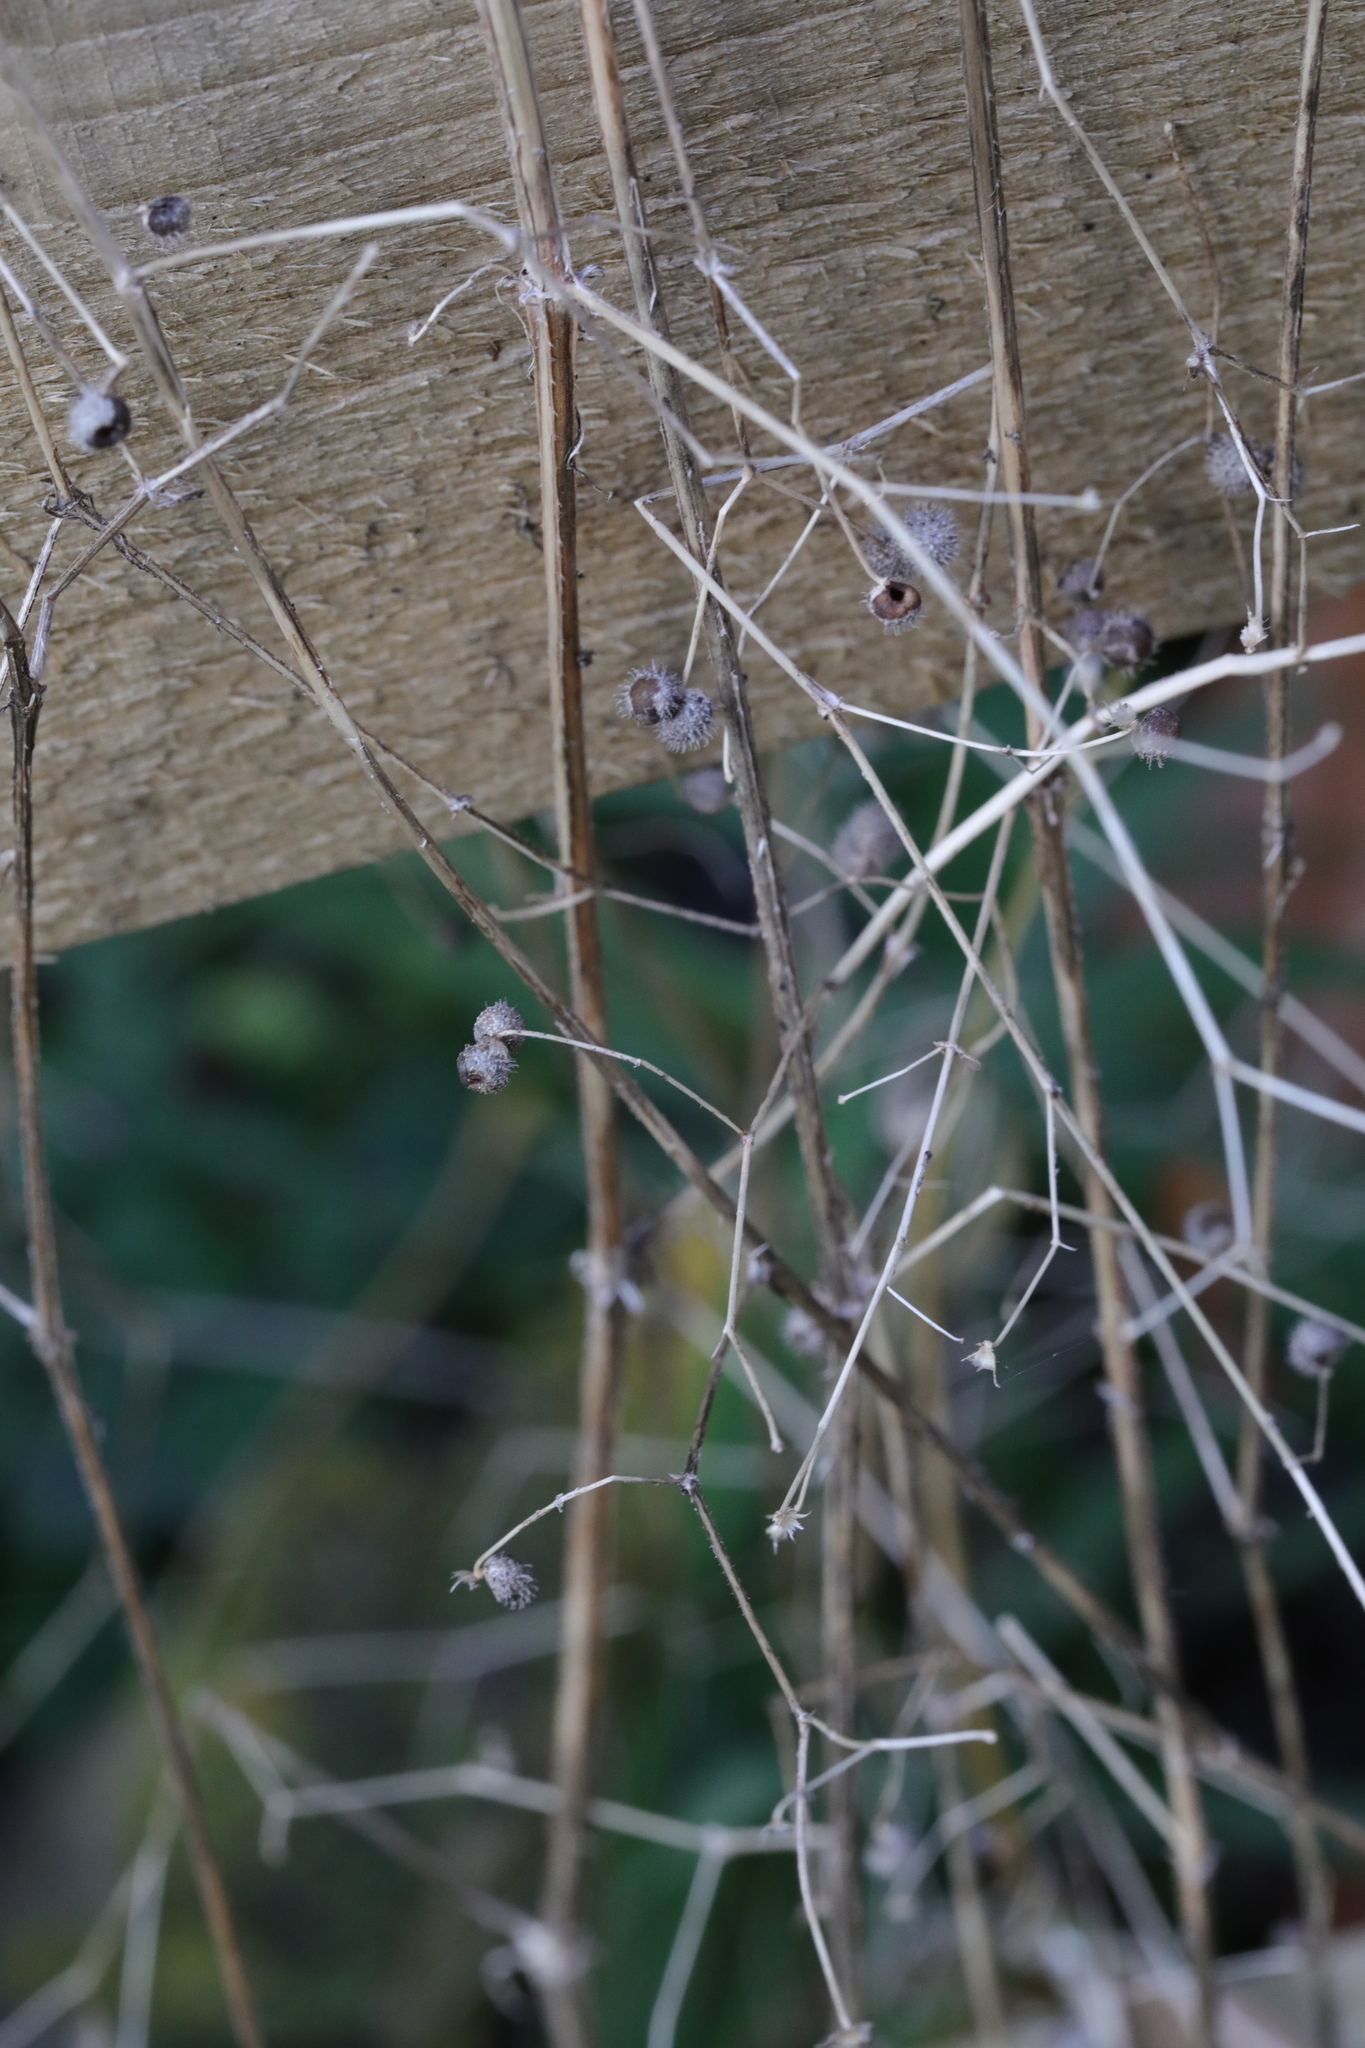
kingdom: Plantae
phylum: Tracheophyta
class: Magnoliopsida
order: Gentianales
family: Rubiaceae
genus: Galium
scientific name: Galium aparine
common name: Cleavers
